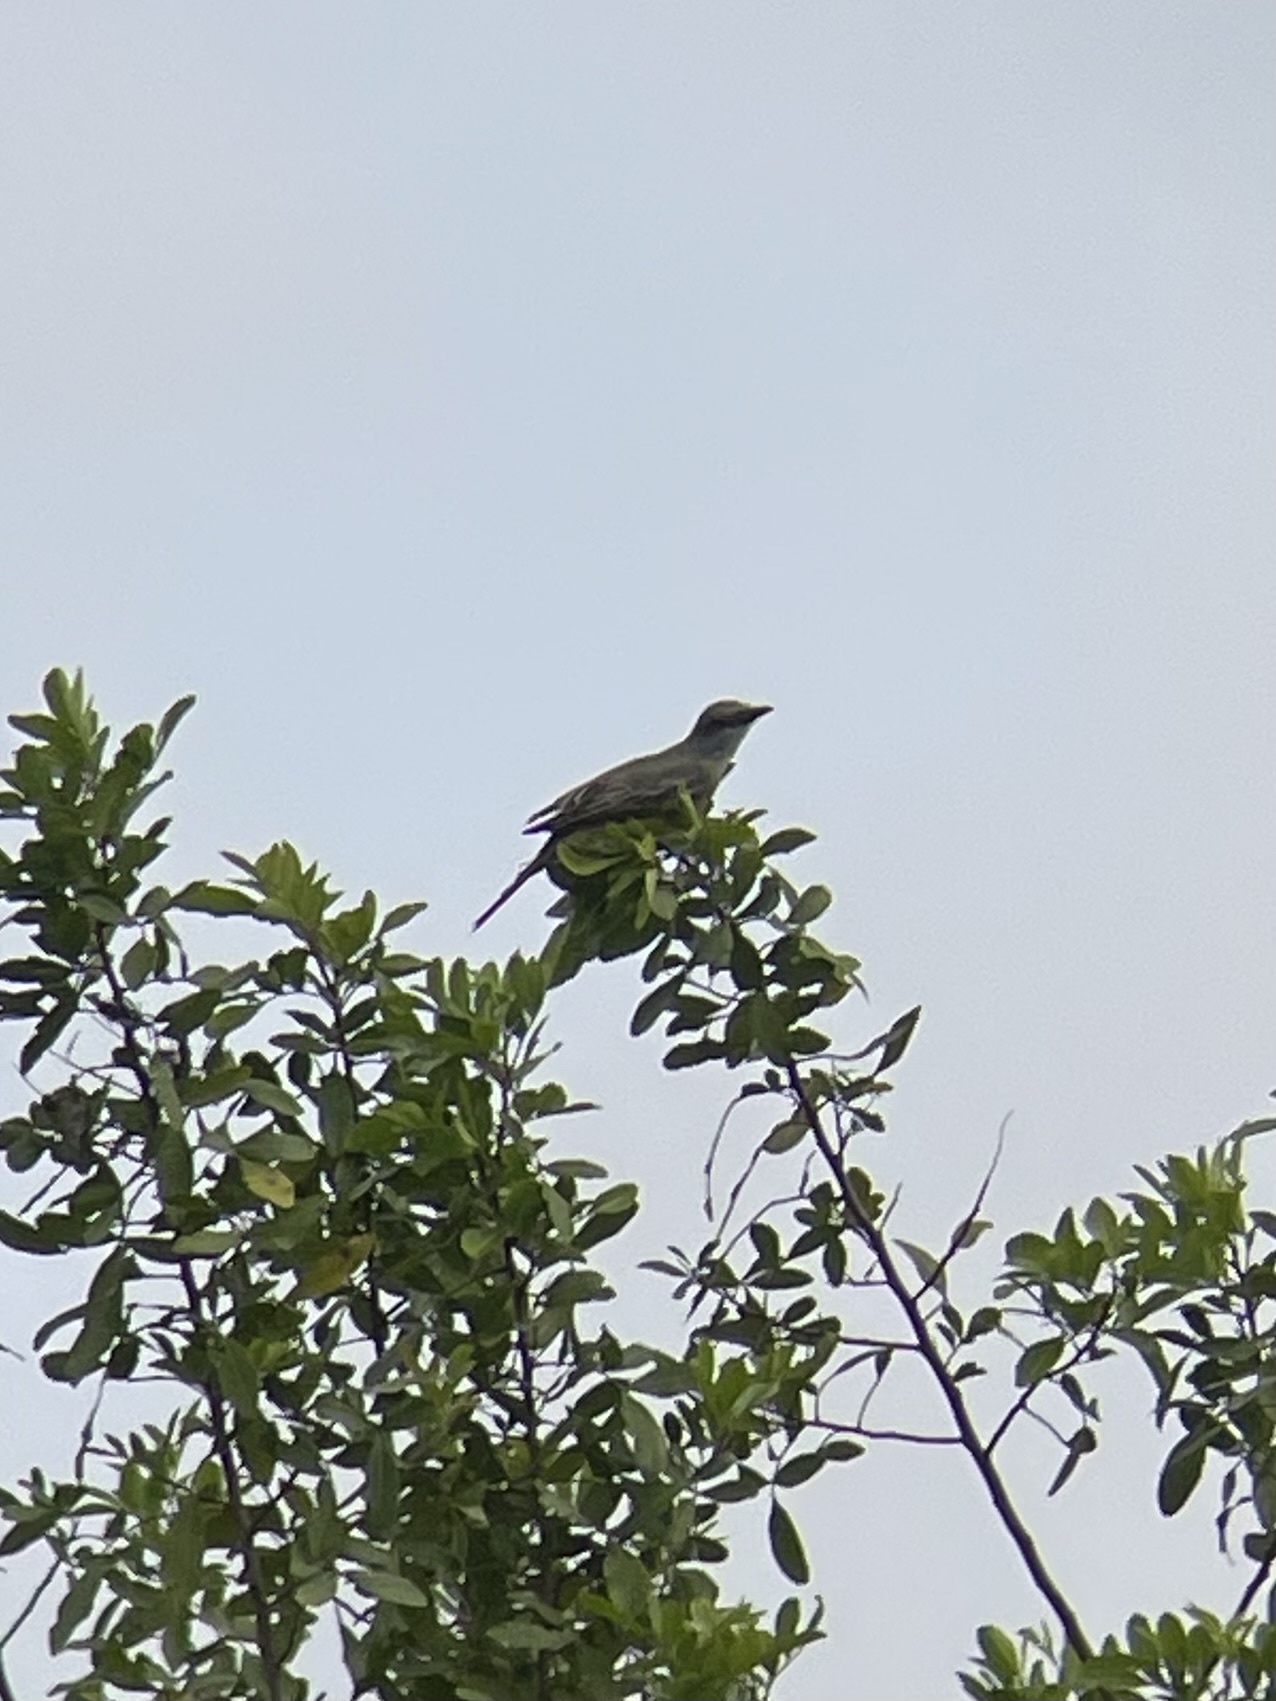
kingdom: Animalia
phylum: Chordata
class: Aves
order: Passeriformes
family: Tyrannidae
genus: Tyrannus
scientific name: Tyrannus verticalis
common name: Western kingbird
